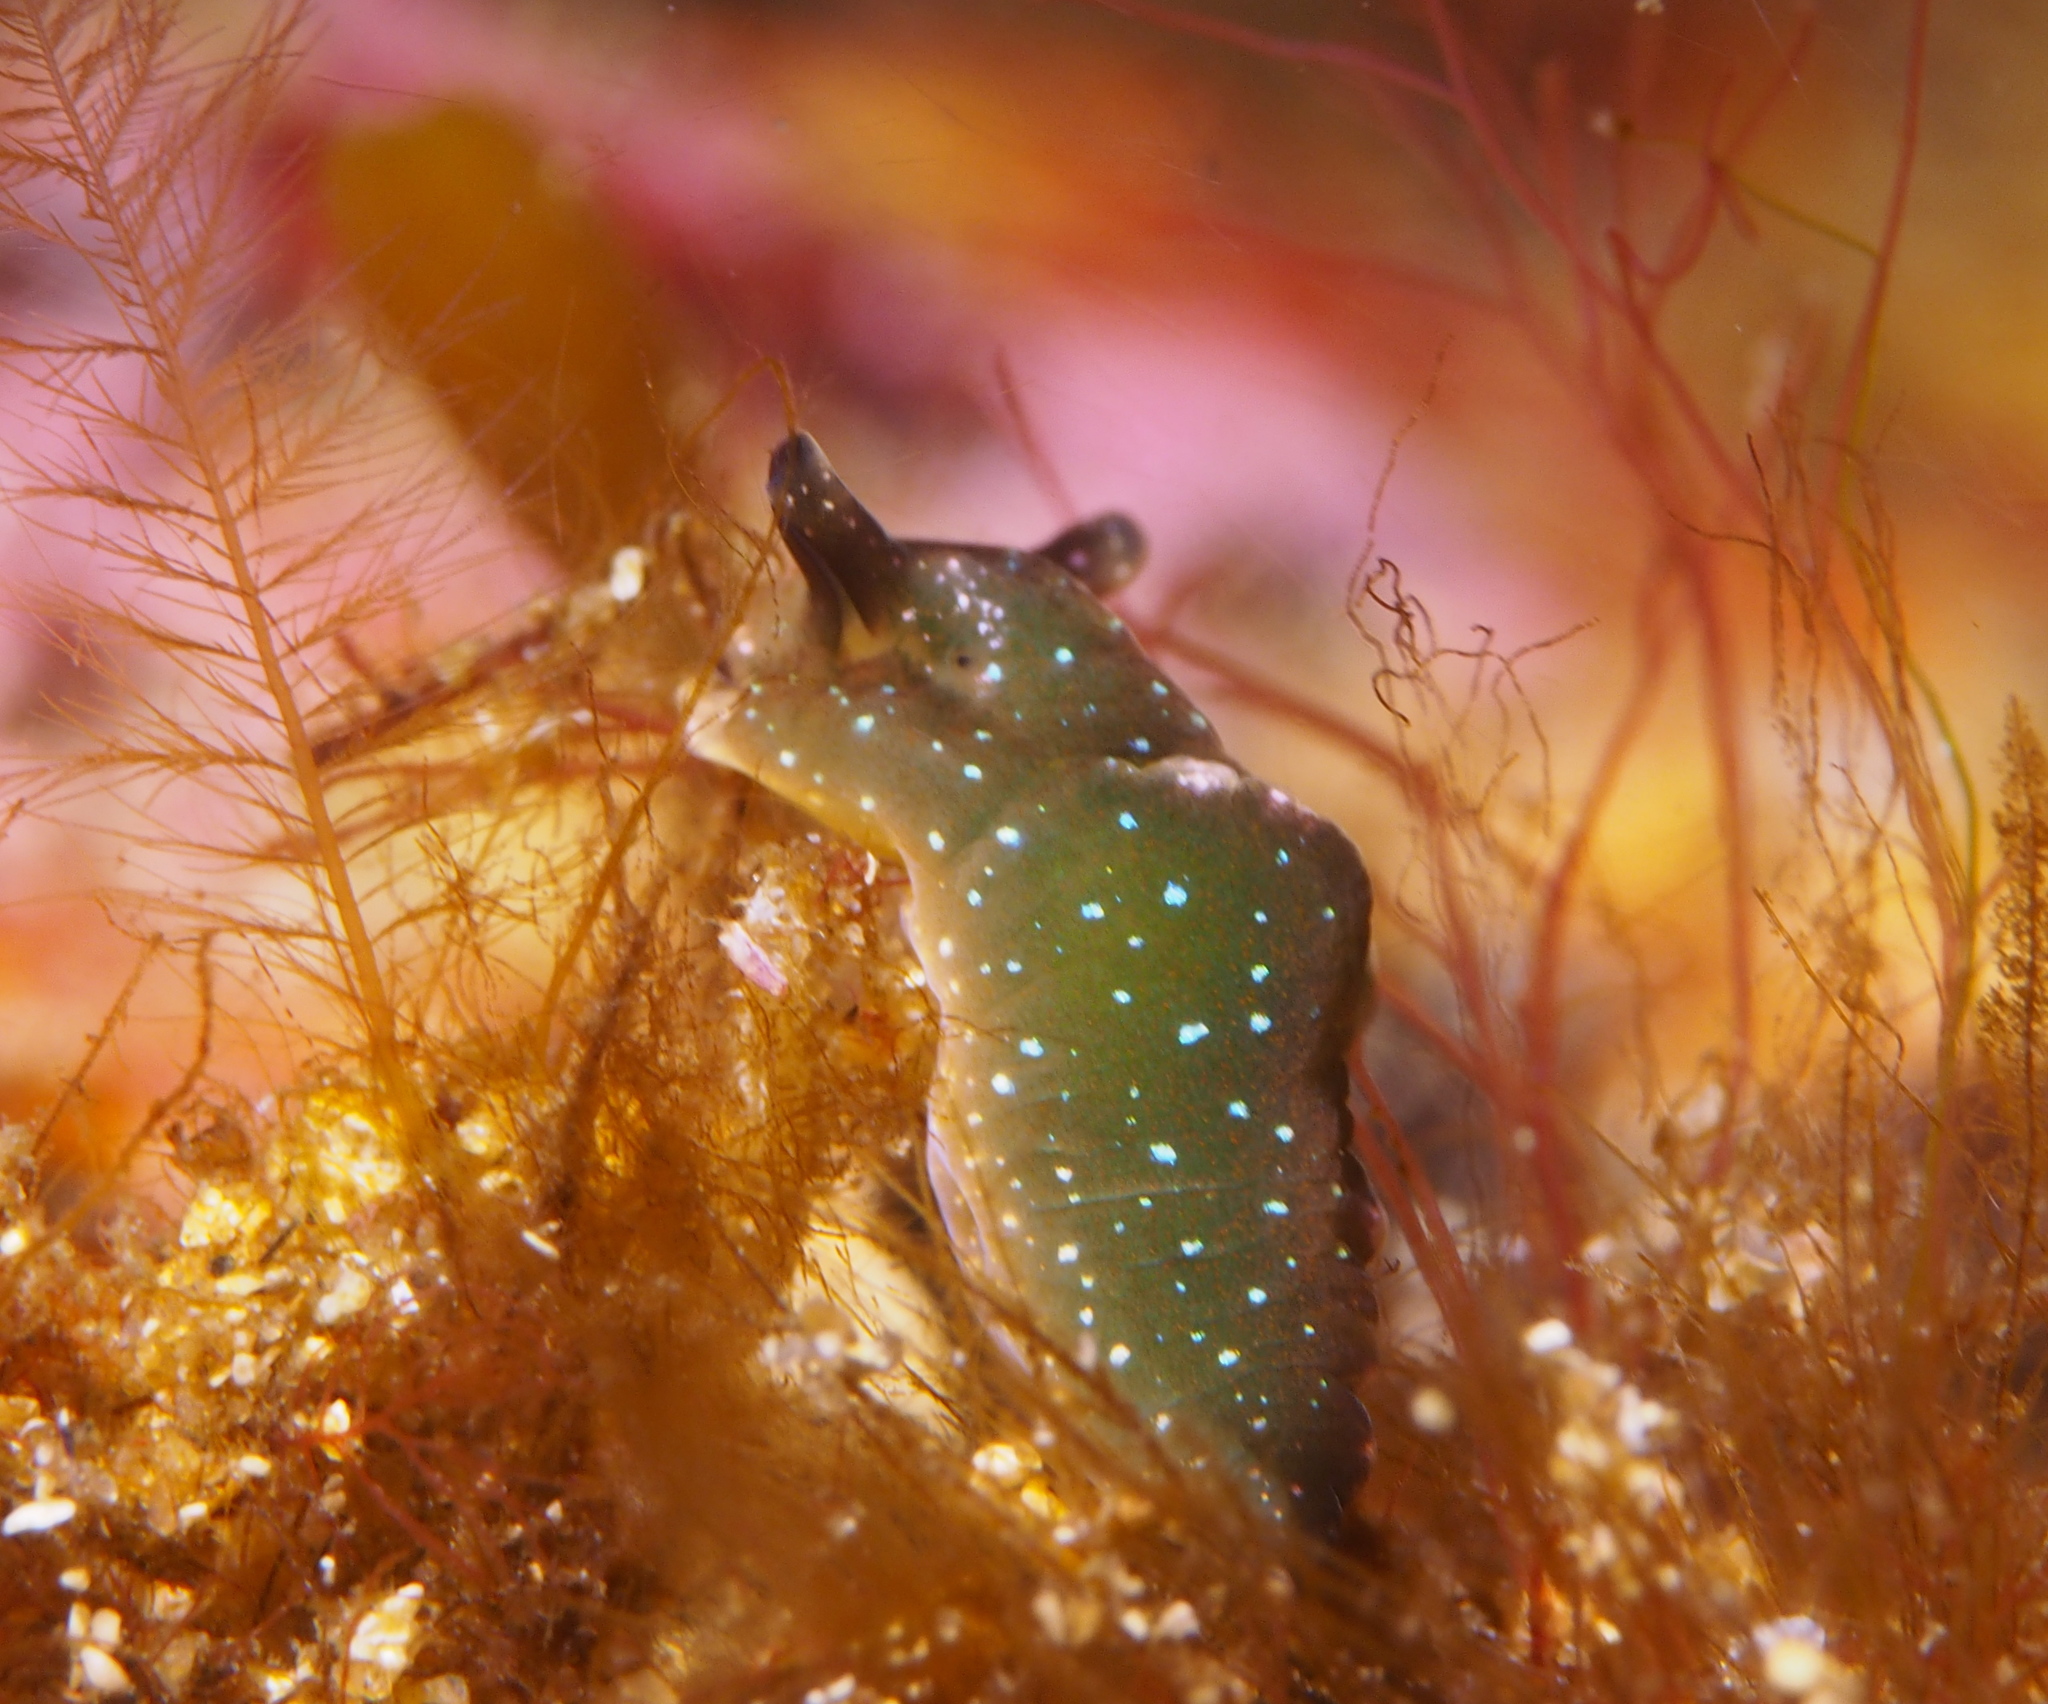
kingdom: Animalia
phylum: Mollusca
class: Gastropoda
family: Plakobranchidae
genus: Elysia
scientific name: Elysia viridis
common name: Green elysia
